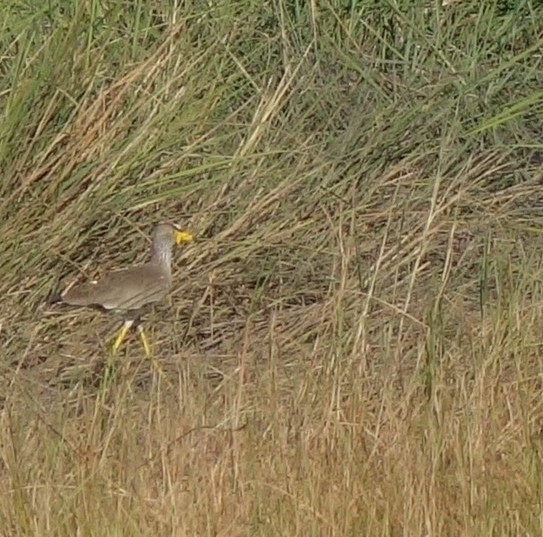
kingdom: Animalia
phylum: Chordata
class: Aves
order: Charadriiformes
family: Charadriidae
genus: Vanellus
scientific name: Vanellus senegallus
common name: African wattled lapwing
